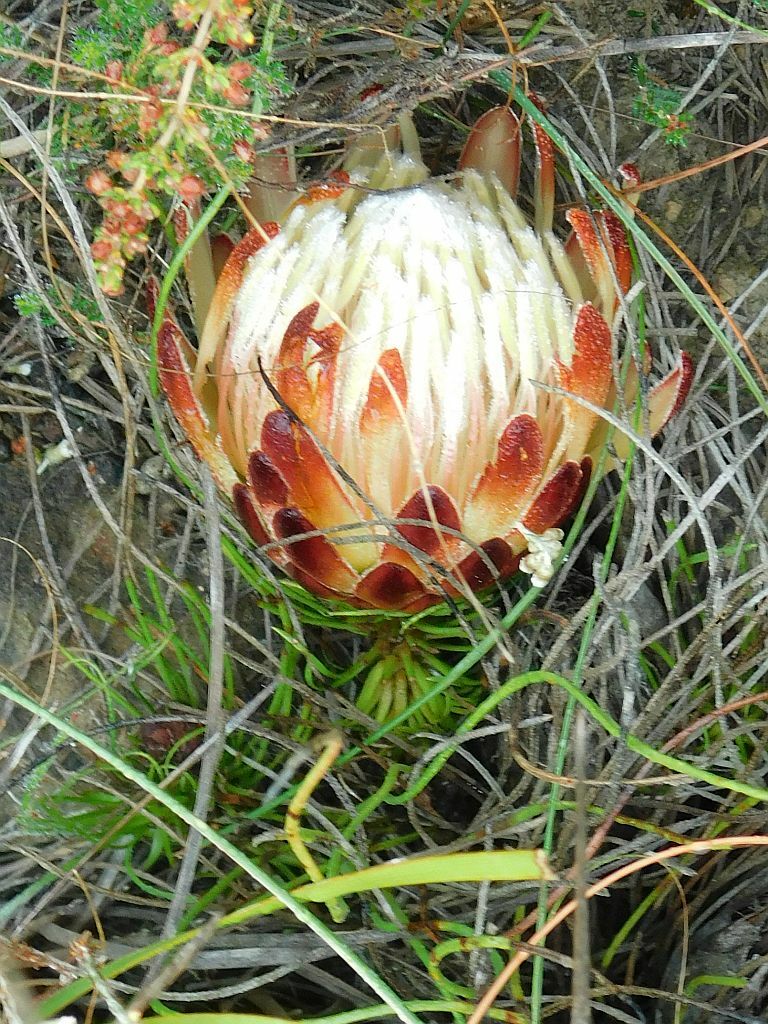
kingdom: Plantae
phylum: Tracheophyta
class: Magnoliopsida
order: Proteales
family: Proteaceae
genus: Protea
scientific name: Protea restionifolia
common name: Reed-leaf sugarbush
